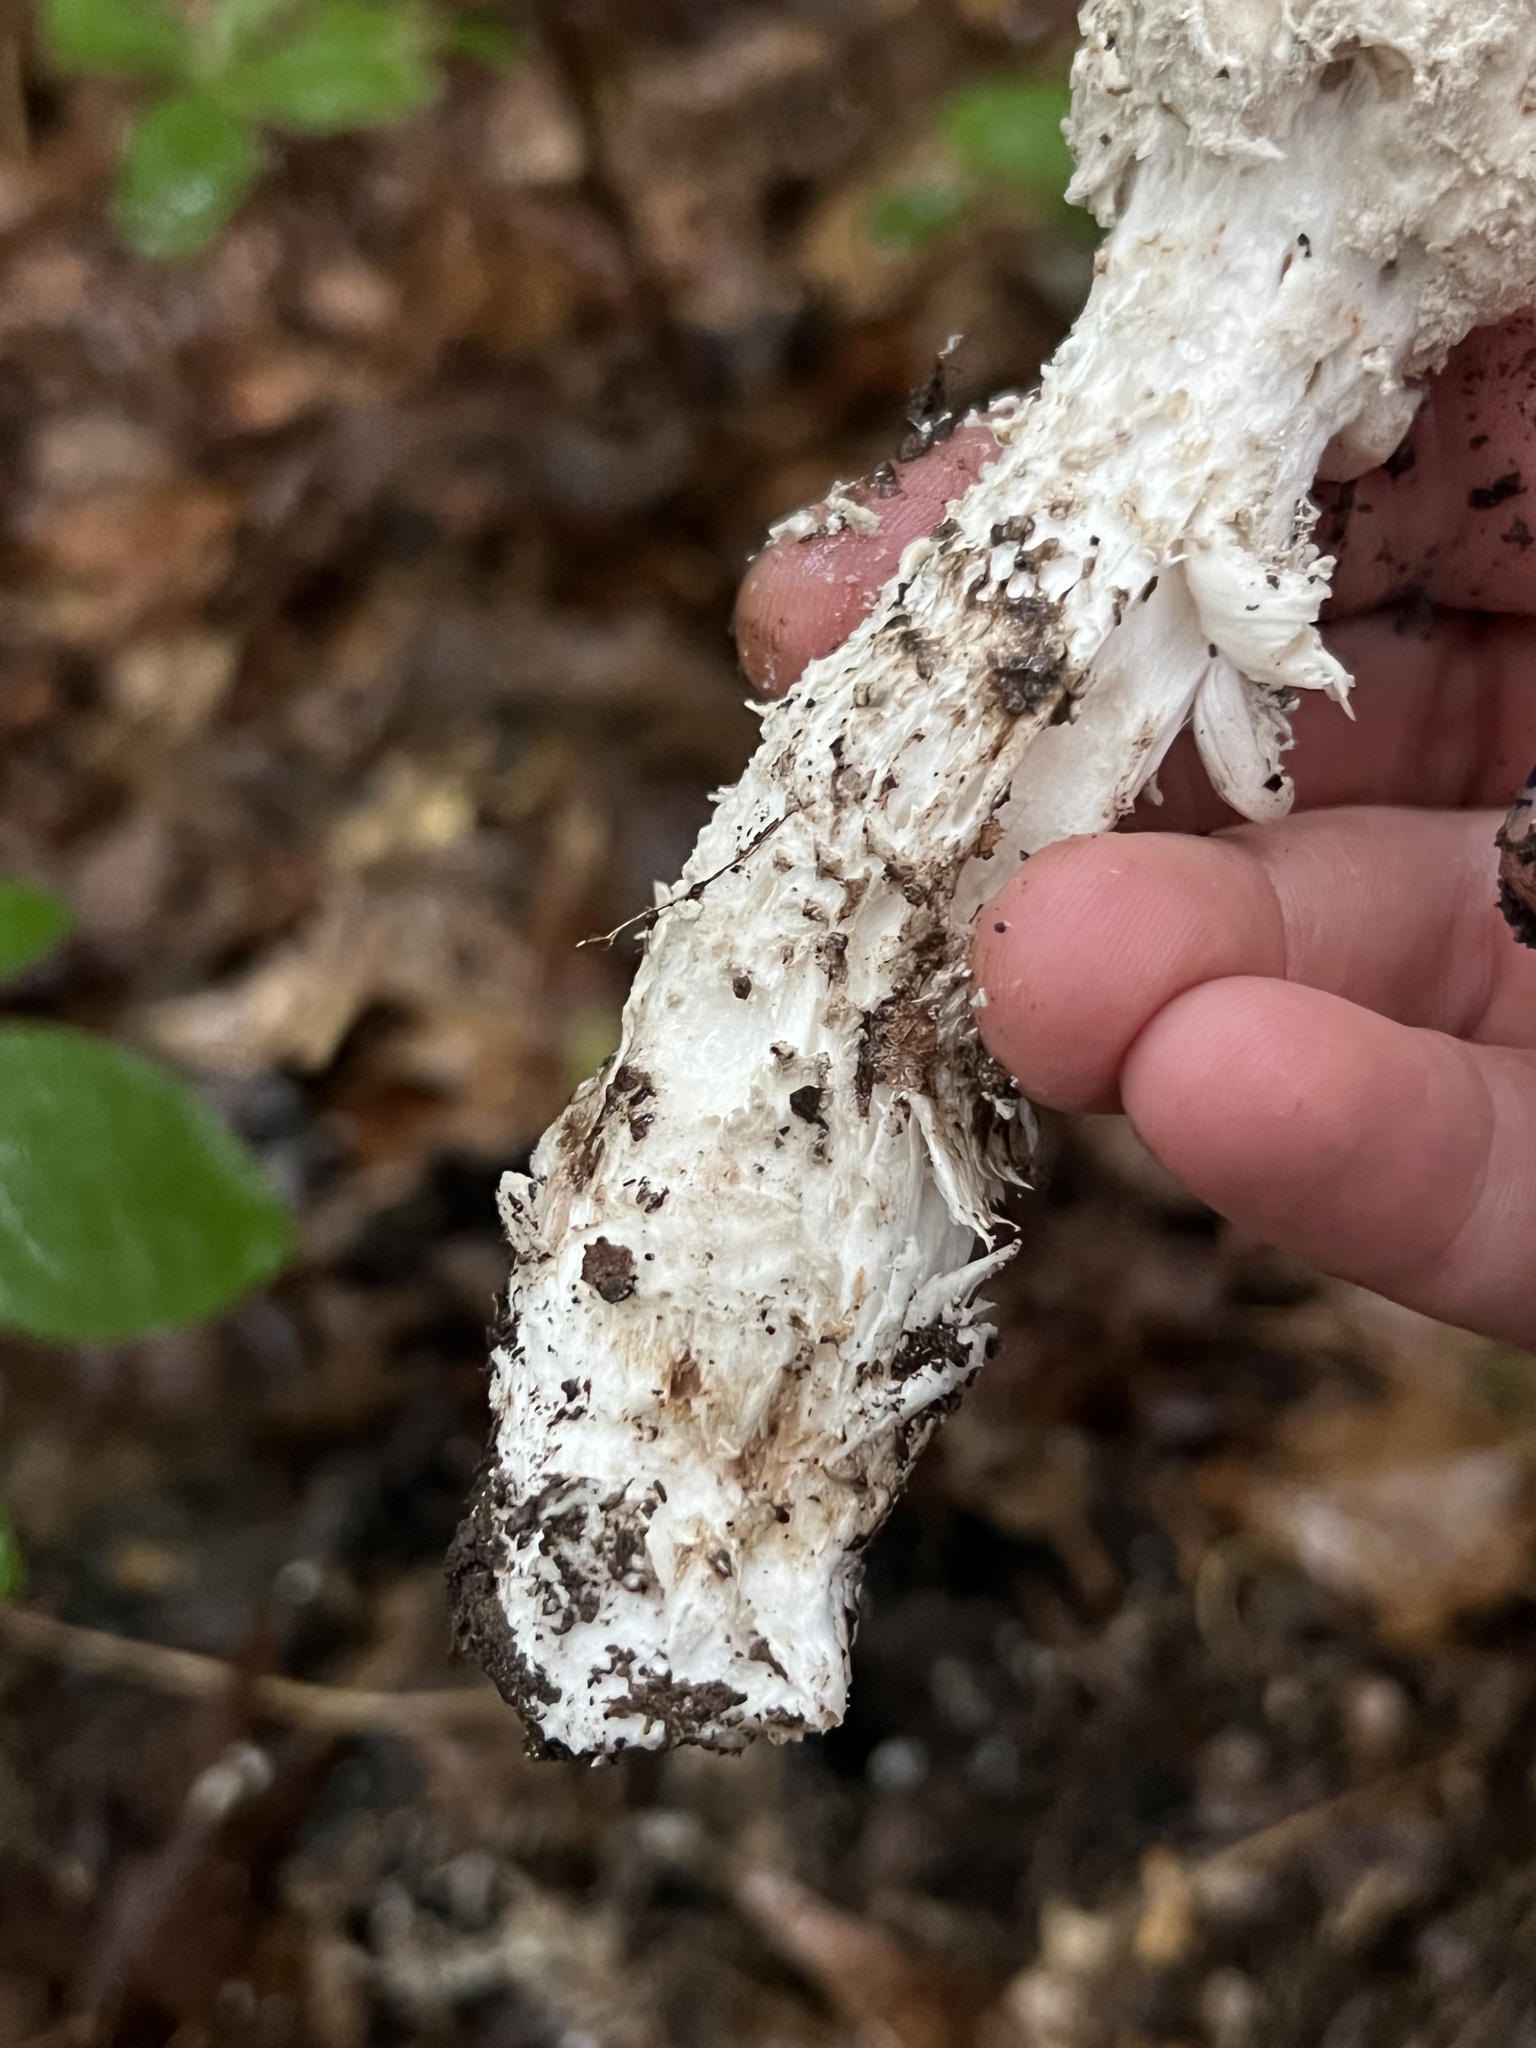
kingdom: Fungi
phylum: Basidiomycota
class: Agaricomycetes
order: Agaricales
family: Amanitaceae
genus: Amanita
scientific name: Amanita cinereopannosa
